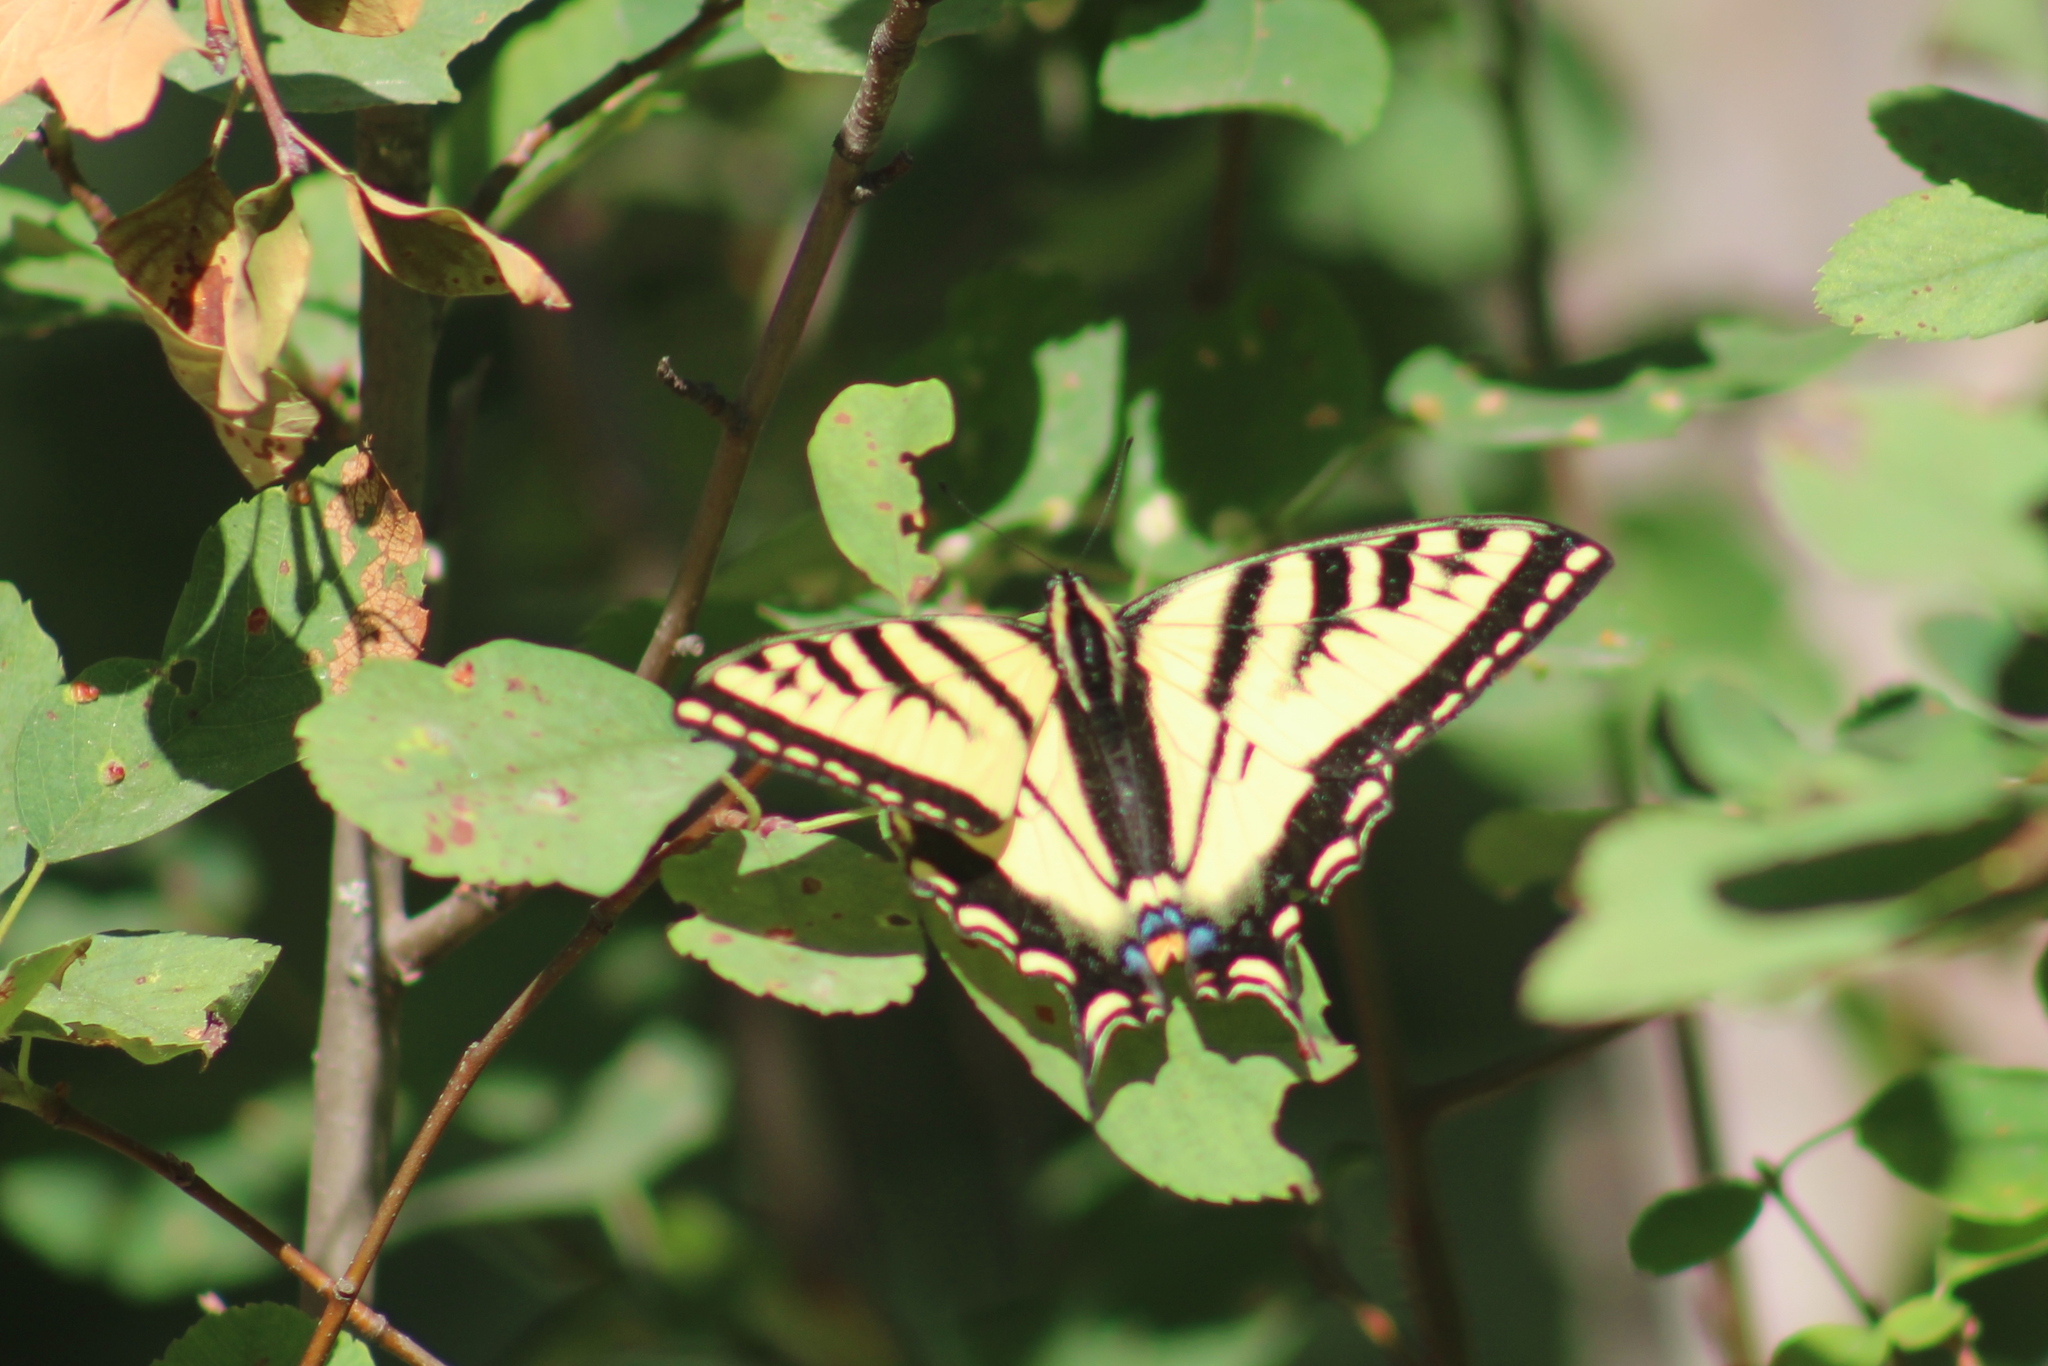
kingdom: Animalia
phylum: Arthropoda
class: Insecta
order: Lepidoptera
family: Papilionidae
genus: Papilio
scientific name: Papilio rutulus
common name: Western tiger swallowtail
